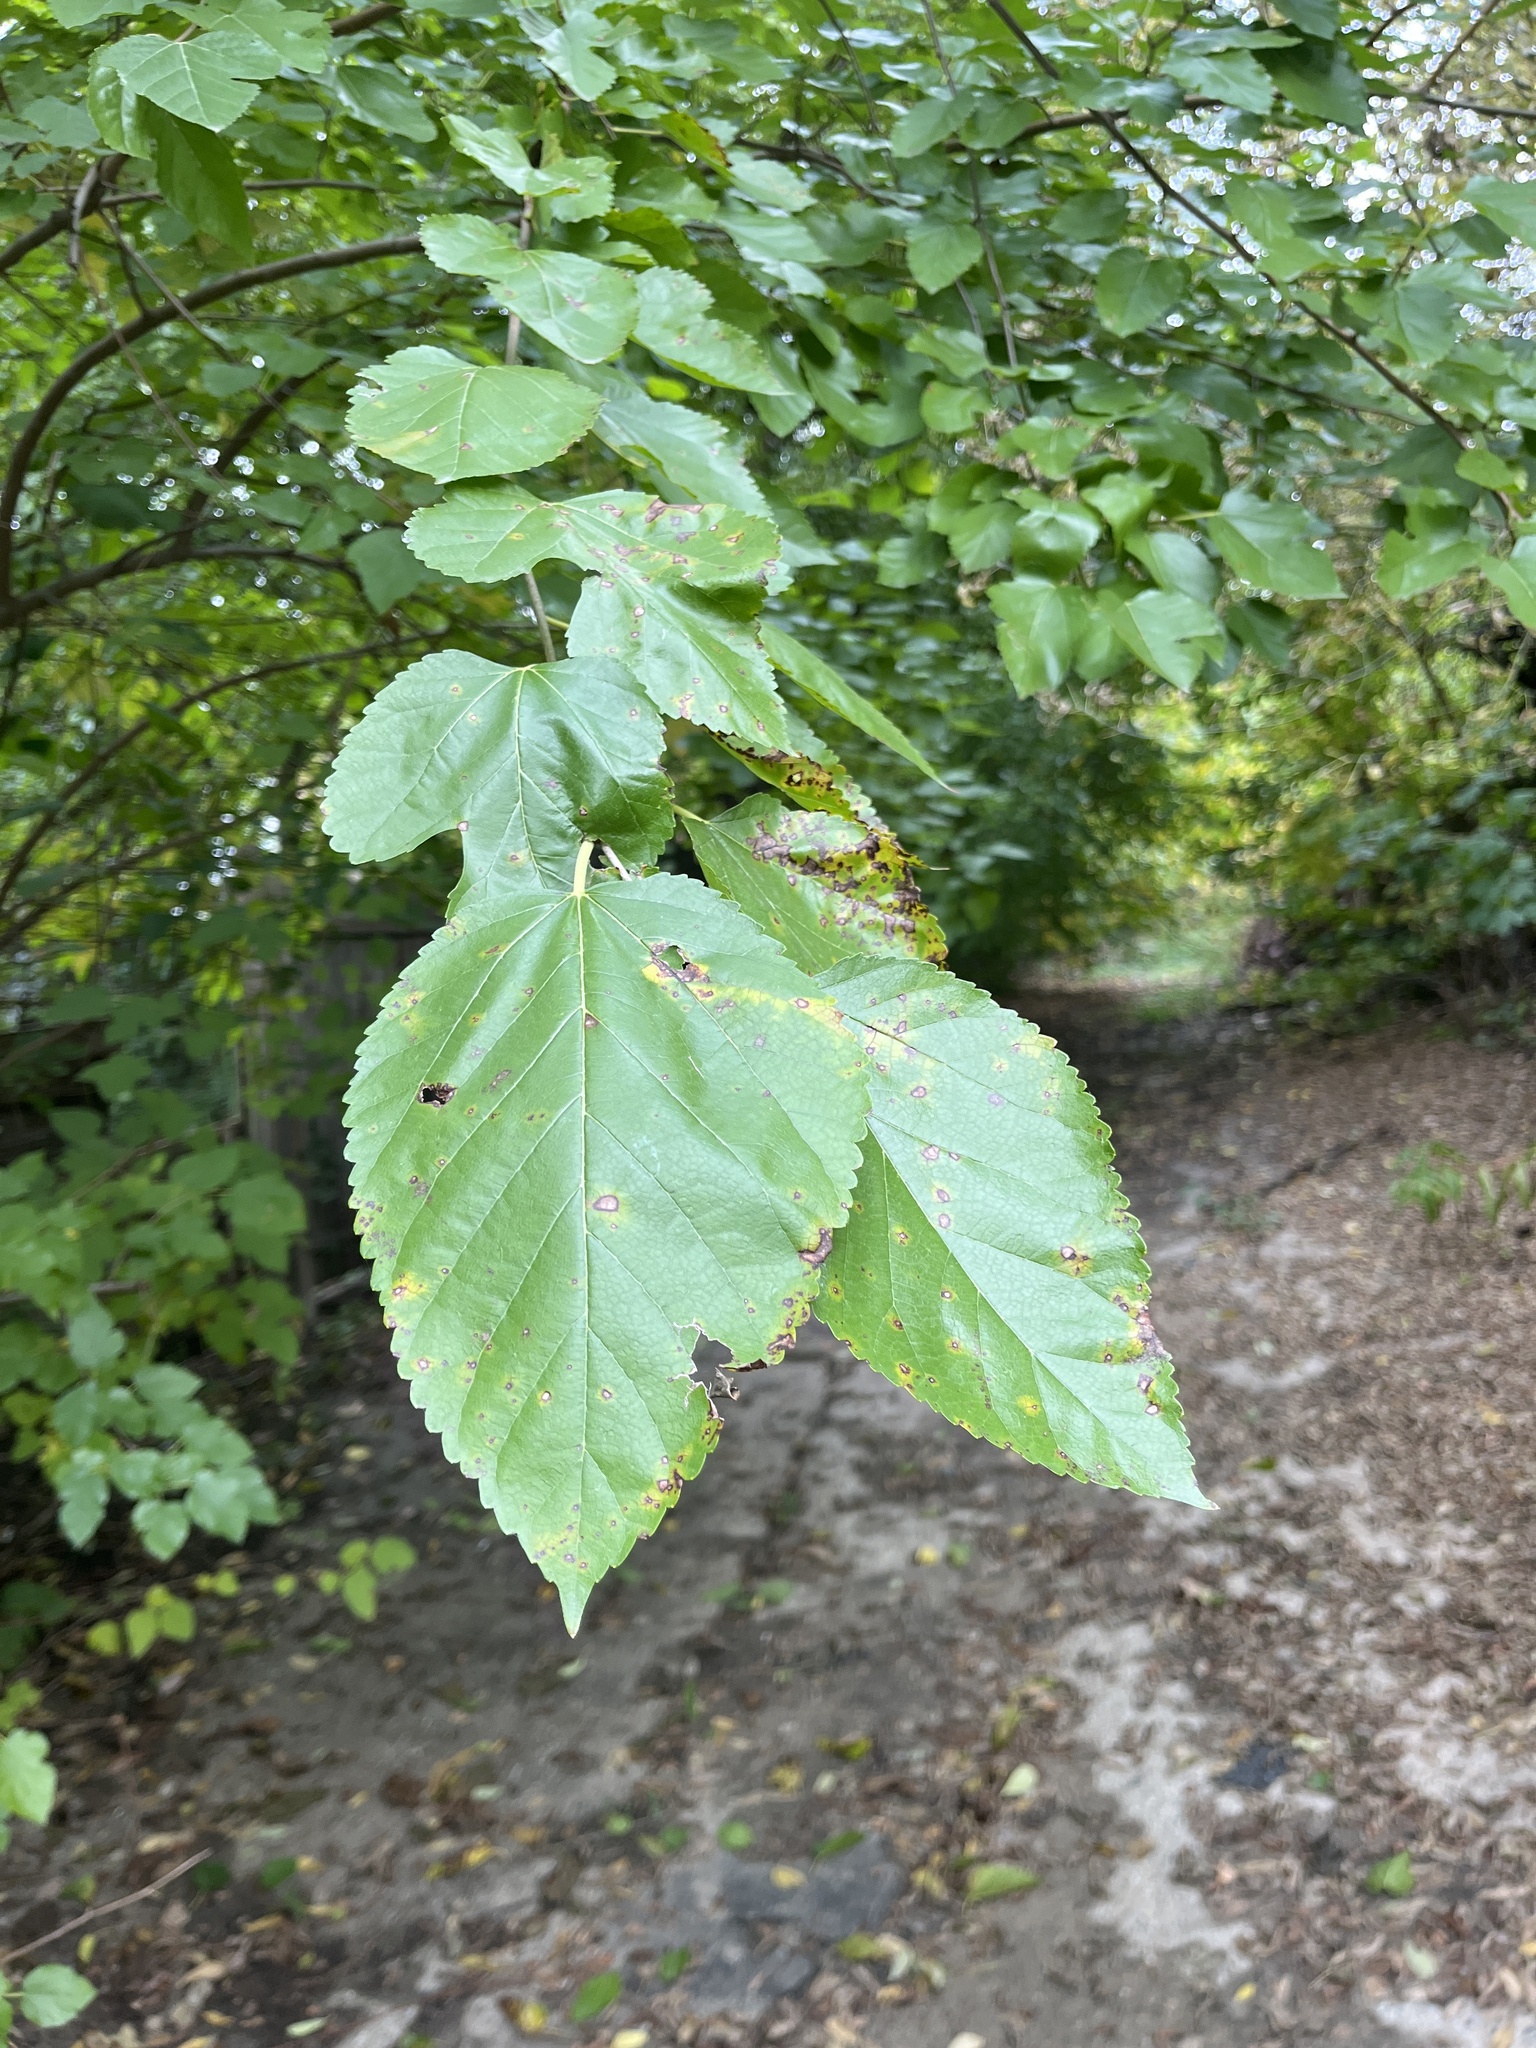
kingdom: Plantae
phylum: Tracheophyta
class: Magnoliopsida
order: Rosales
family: Moraceae
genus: Morus
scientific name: Morus alba
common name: White mulberry
